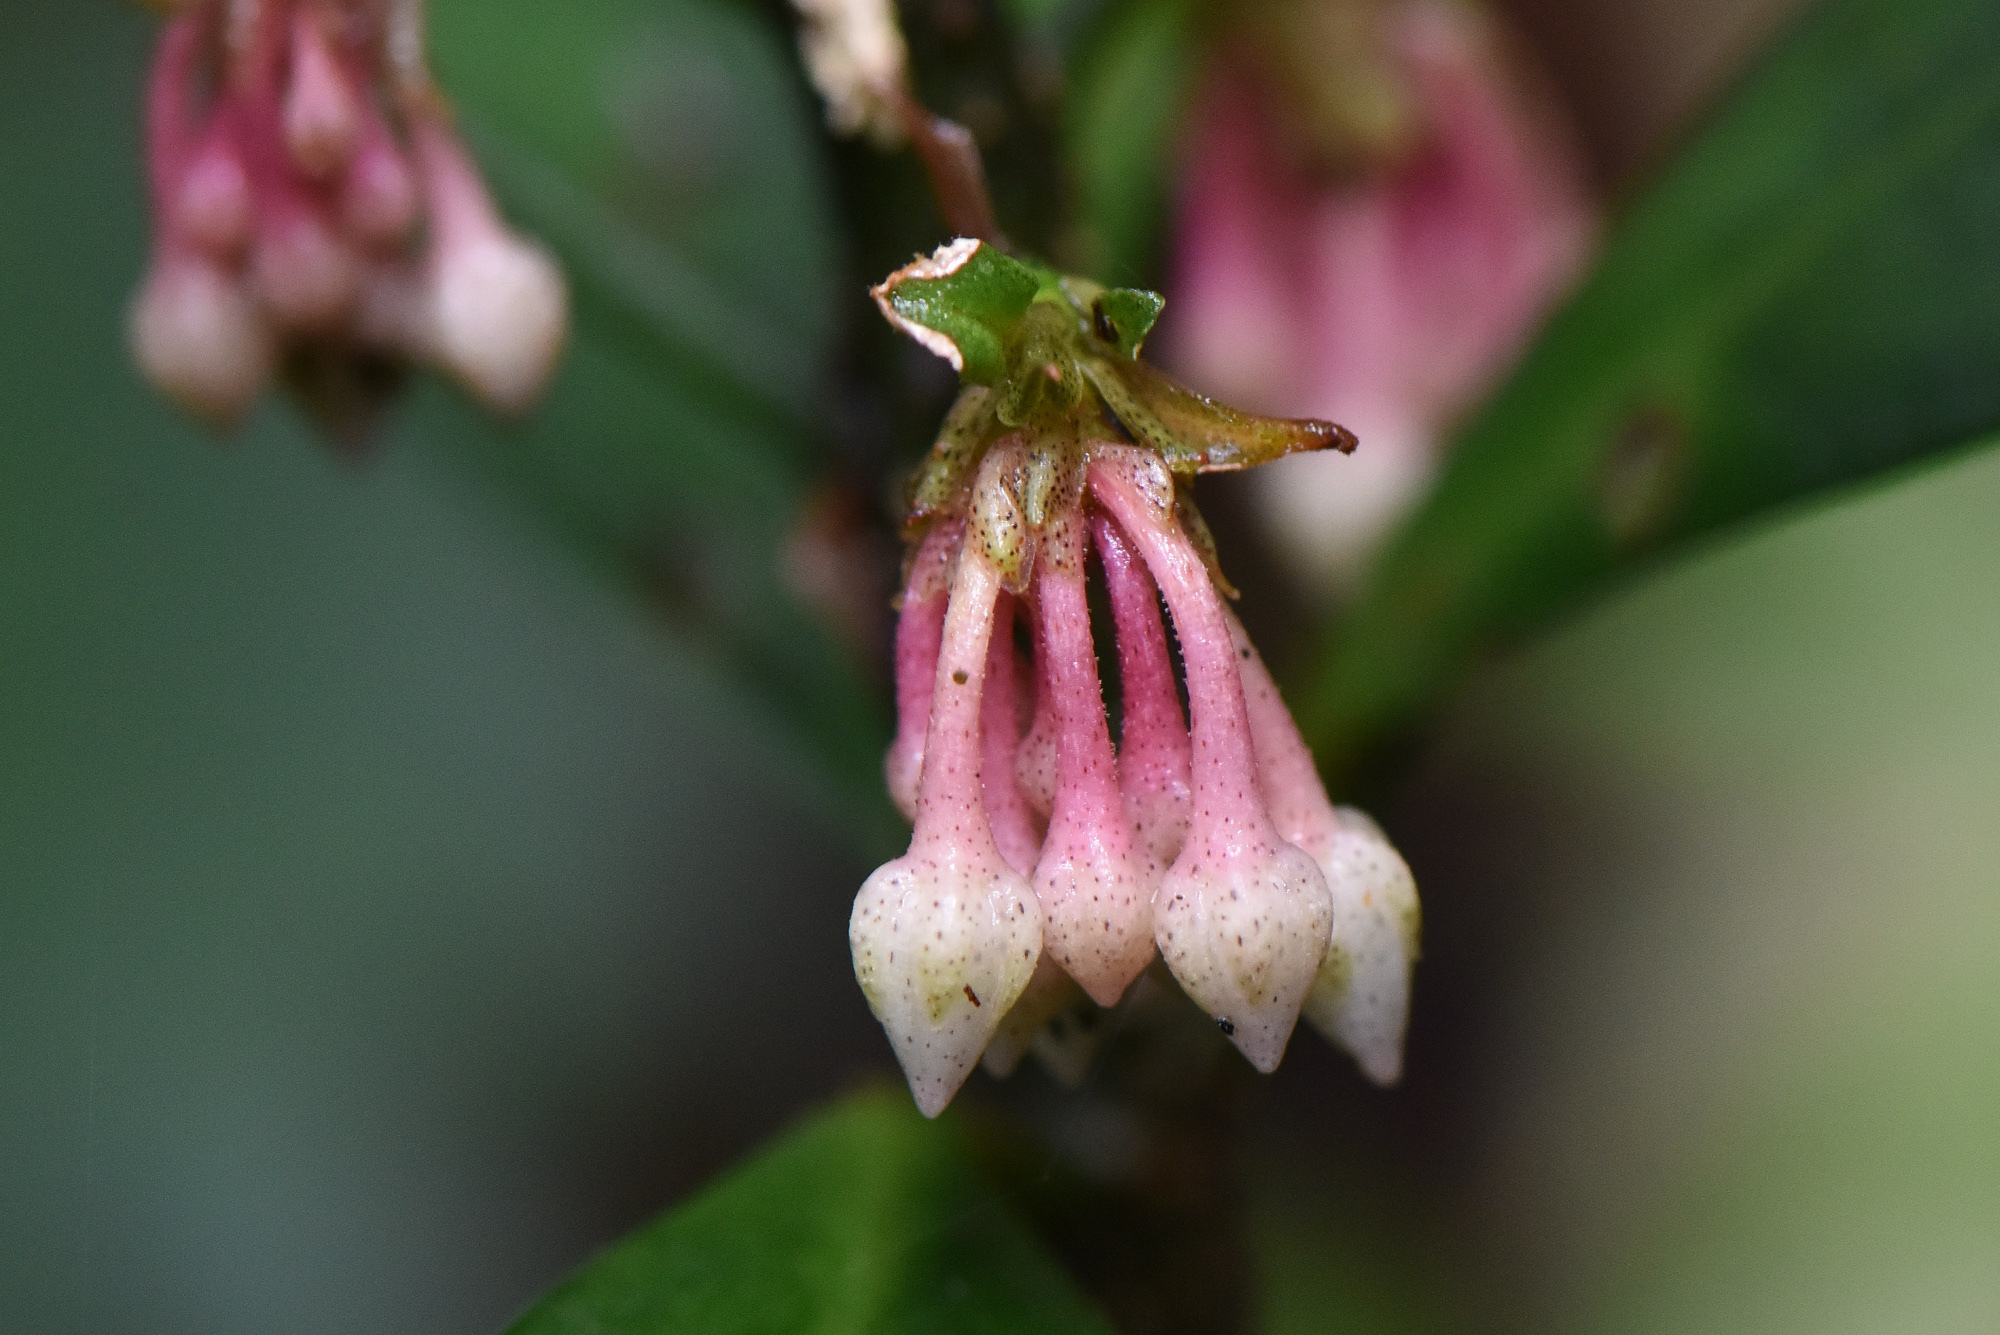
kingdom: Plantae
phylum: Tracheophyta
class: Magnoliopsida
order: Ericales
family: Primulaceae
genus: Ardisia
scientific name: Ardisia cornudentata
